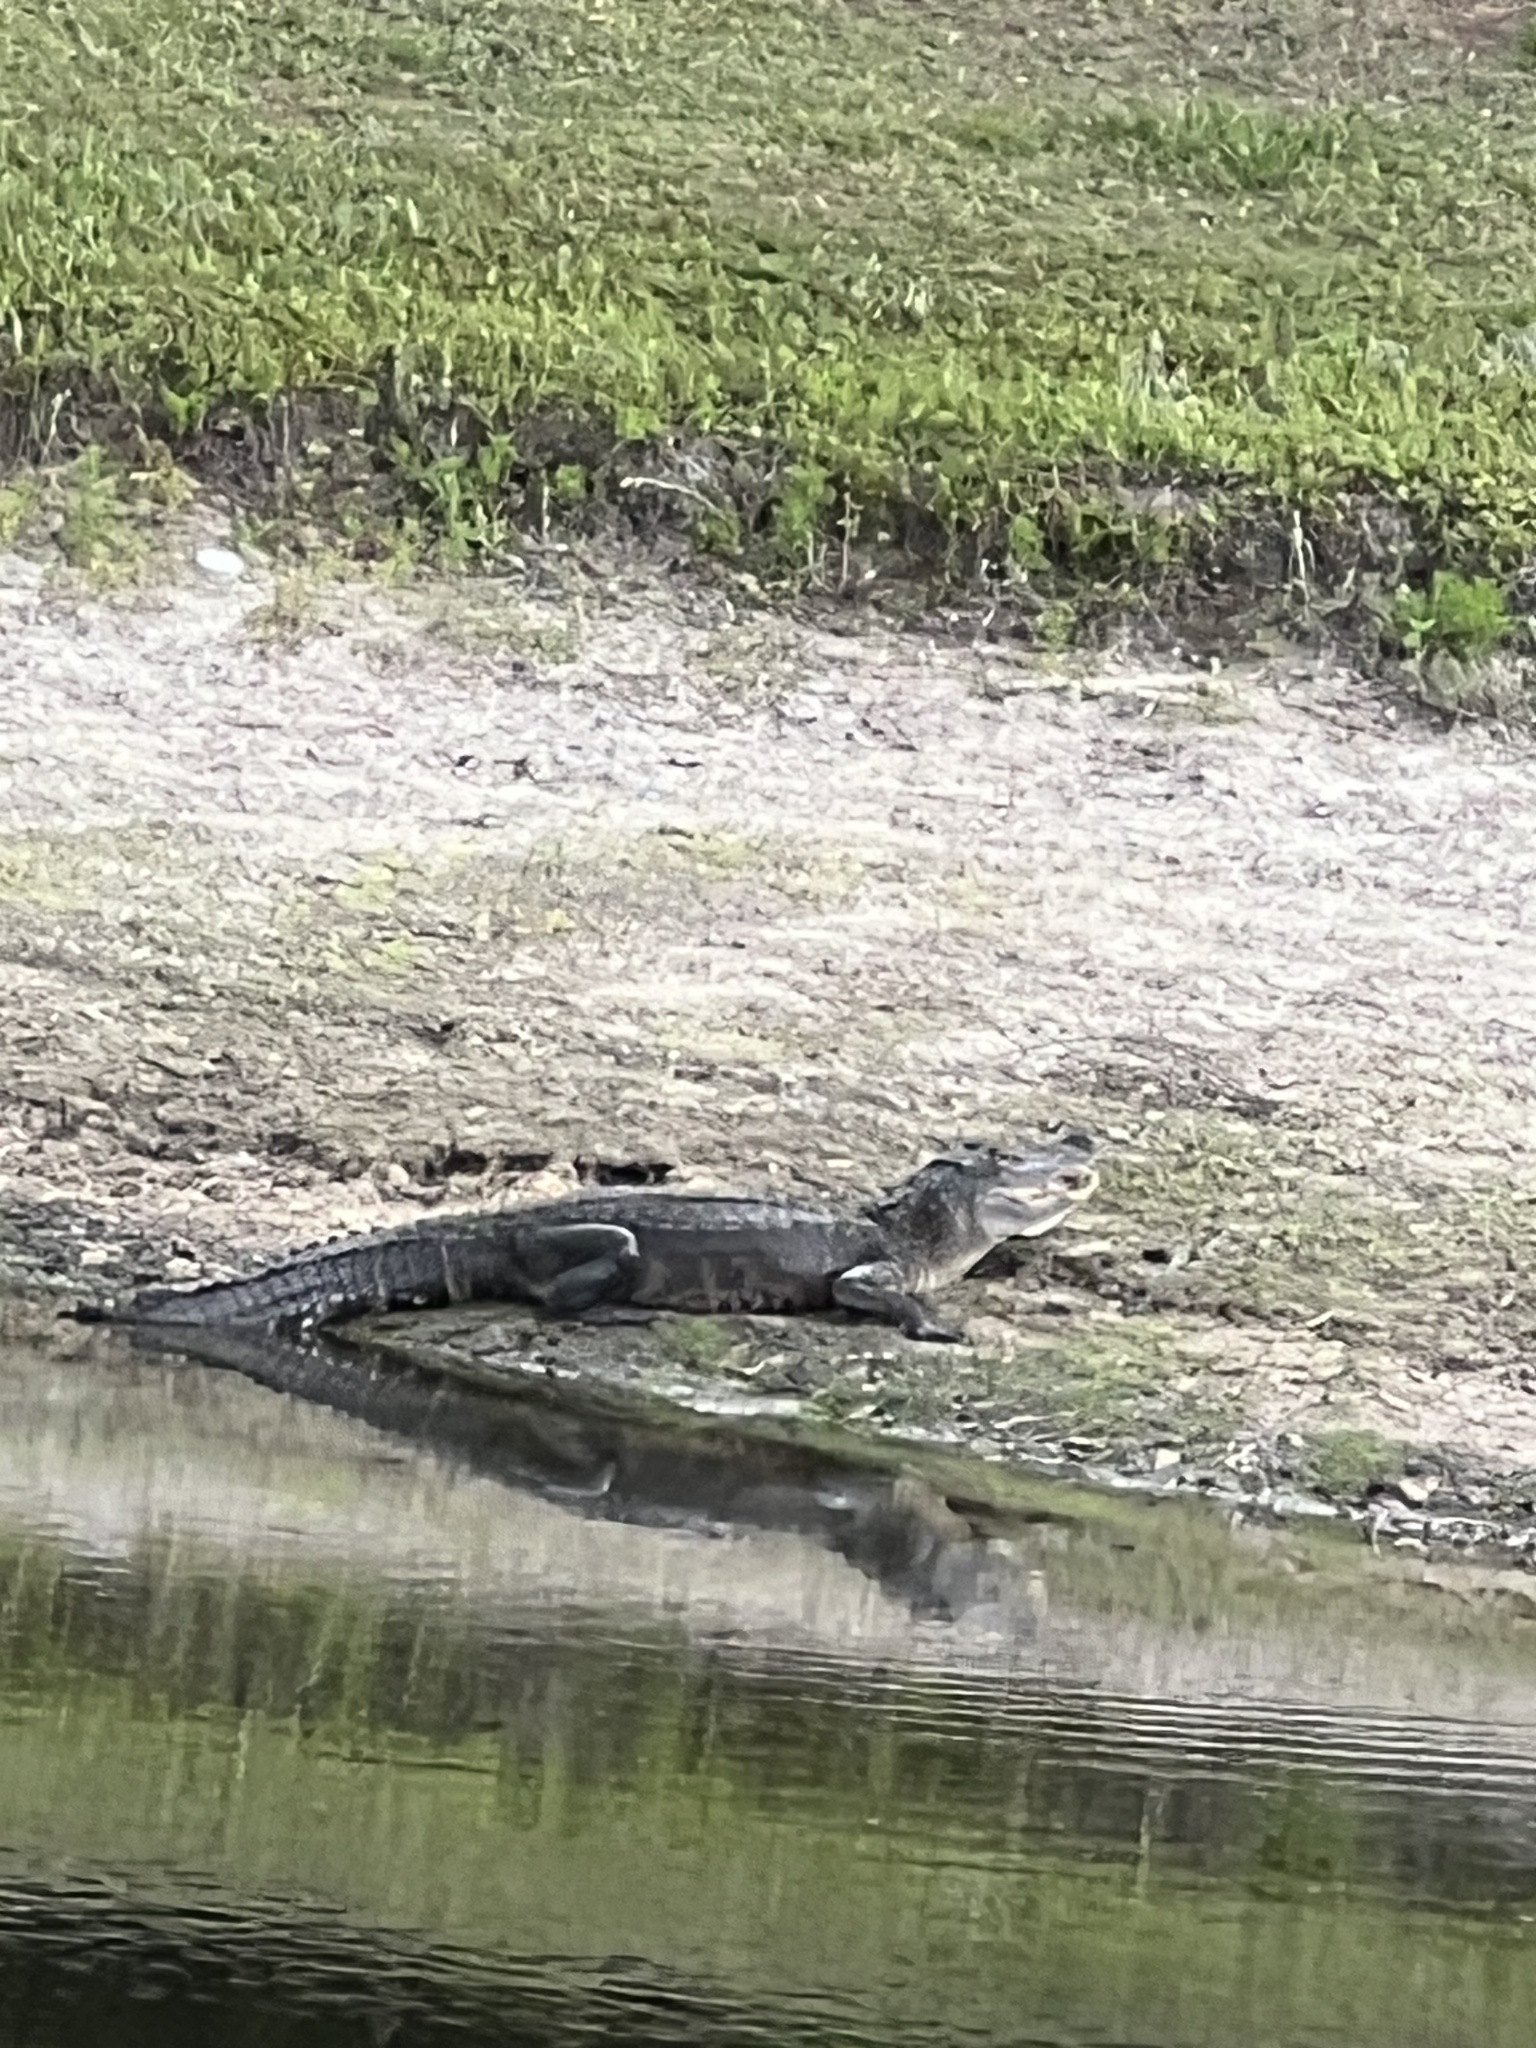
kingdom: Animalia
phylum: Chordata
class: Crocodylia
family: Alligatoridae
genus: Alligator
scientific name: Alligator mississippiensis
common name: American alligator
